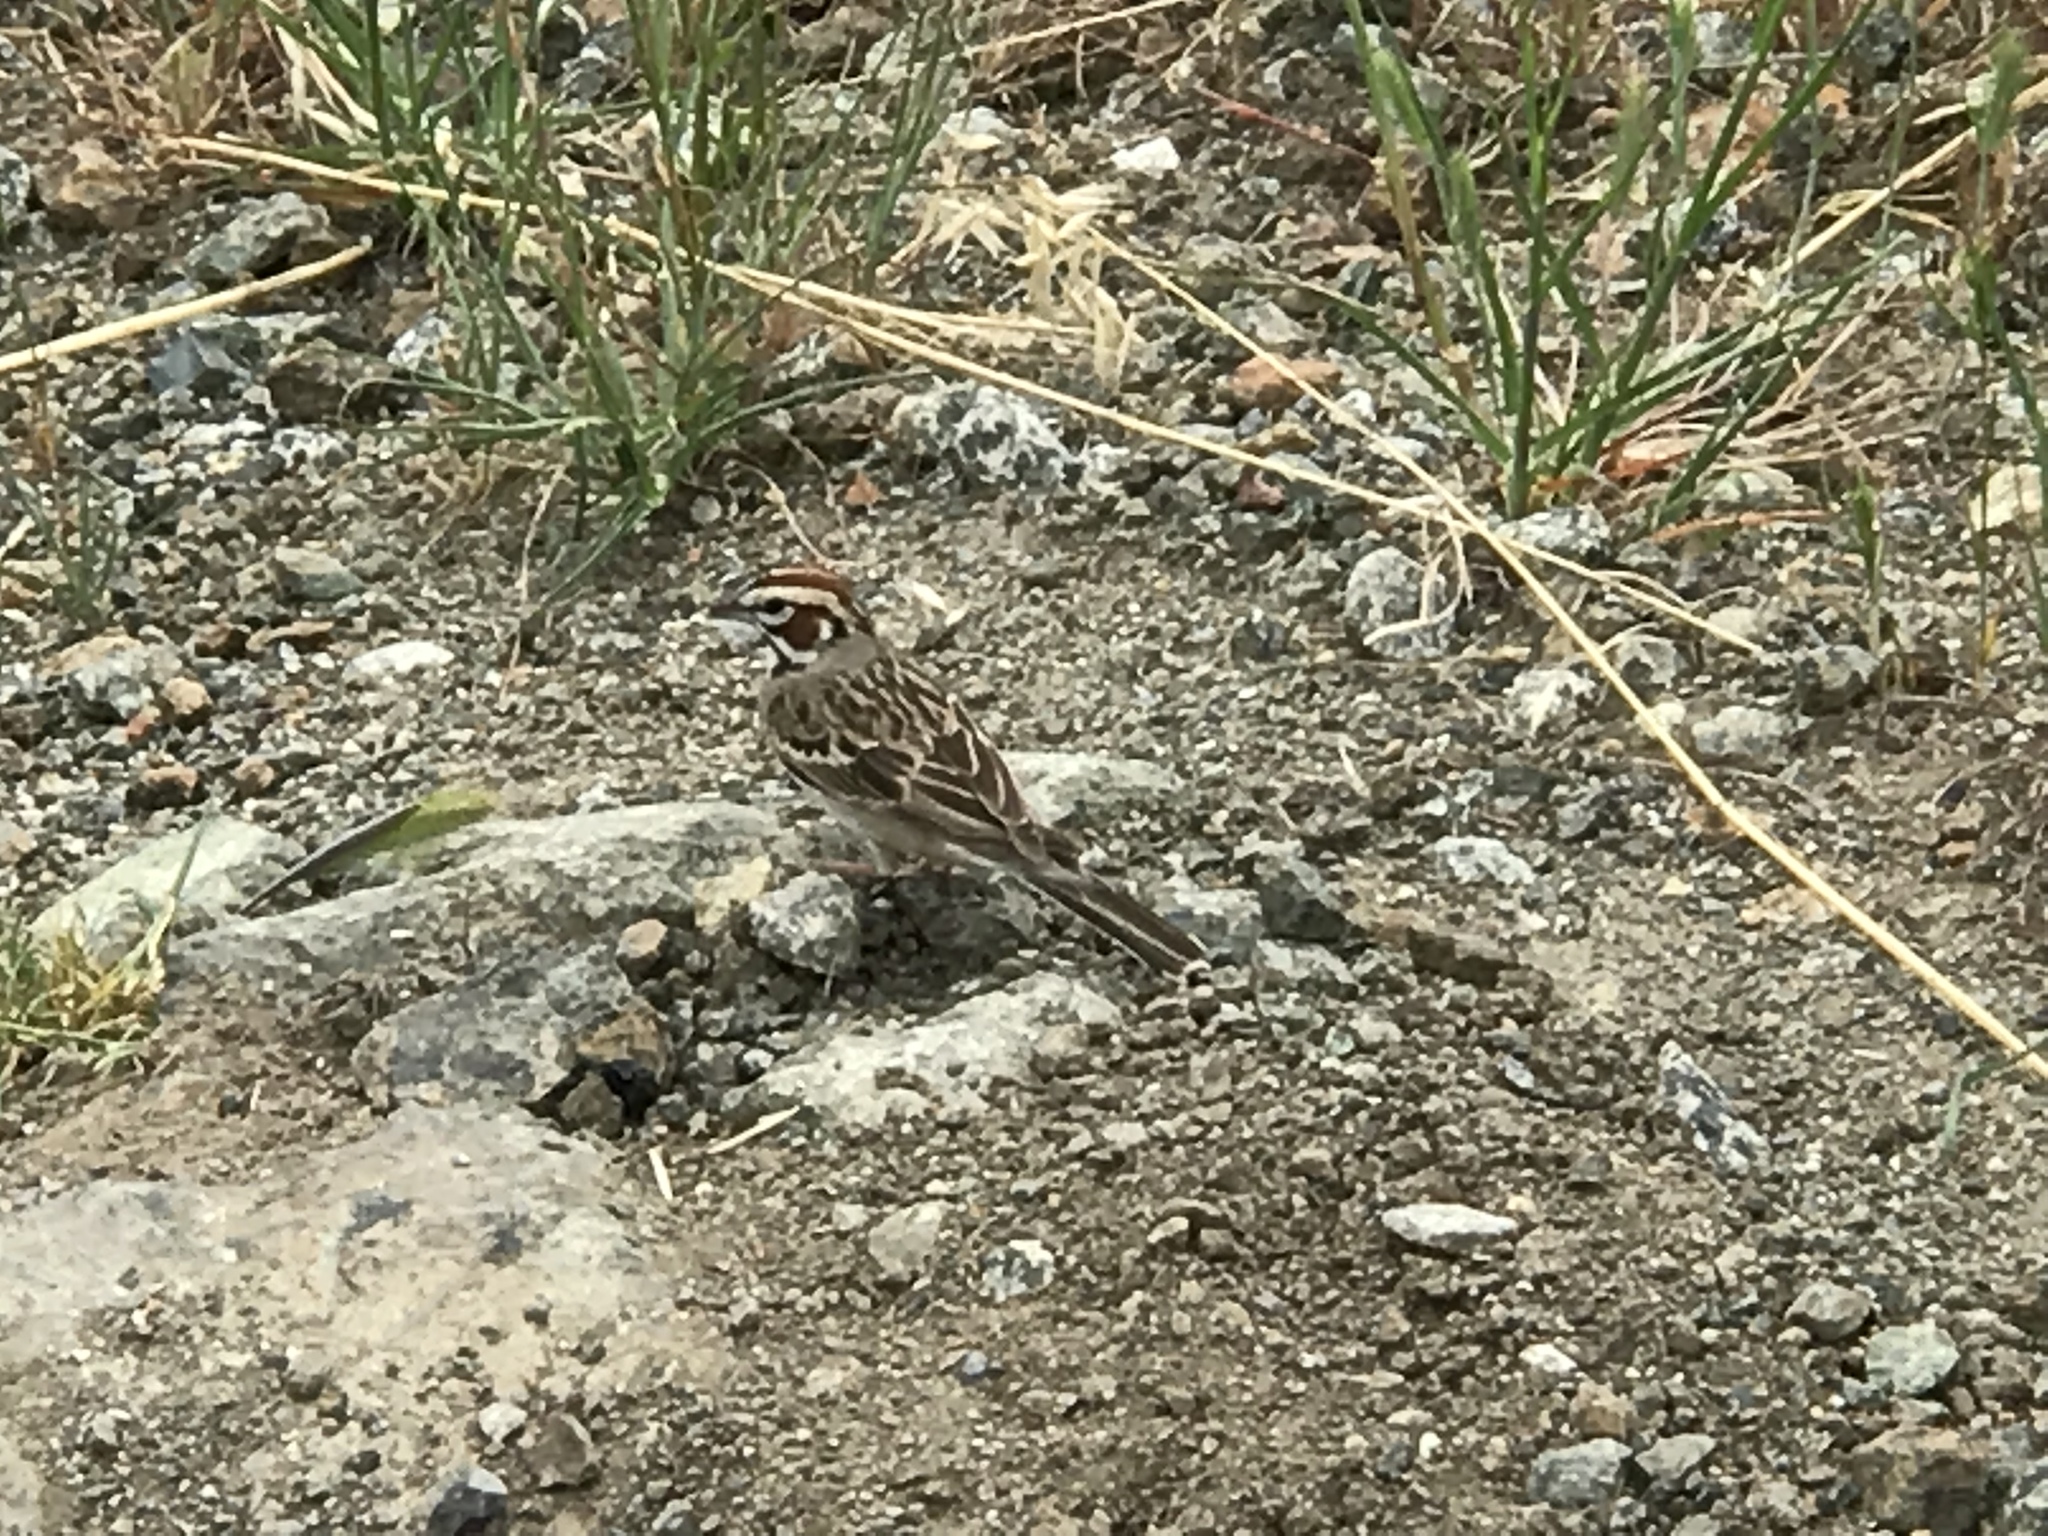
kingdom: Animalia
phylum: Chordata
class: Aves
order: Passeriformes
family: Passerellidae
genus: Chondestes
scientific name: Chondestes grammacus
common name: Lark sparrow
